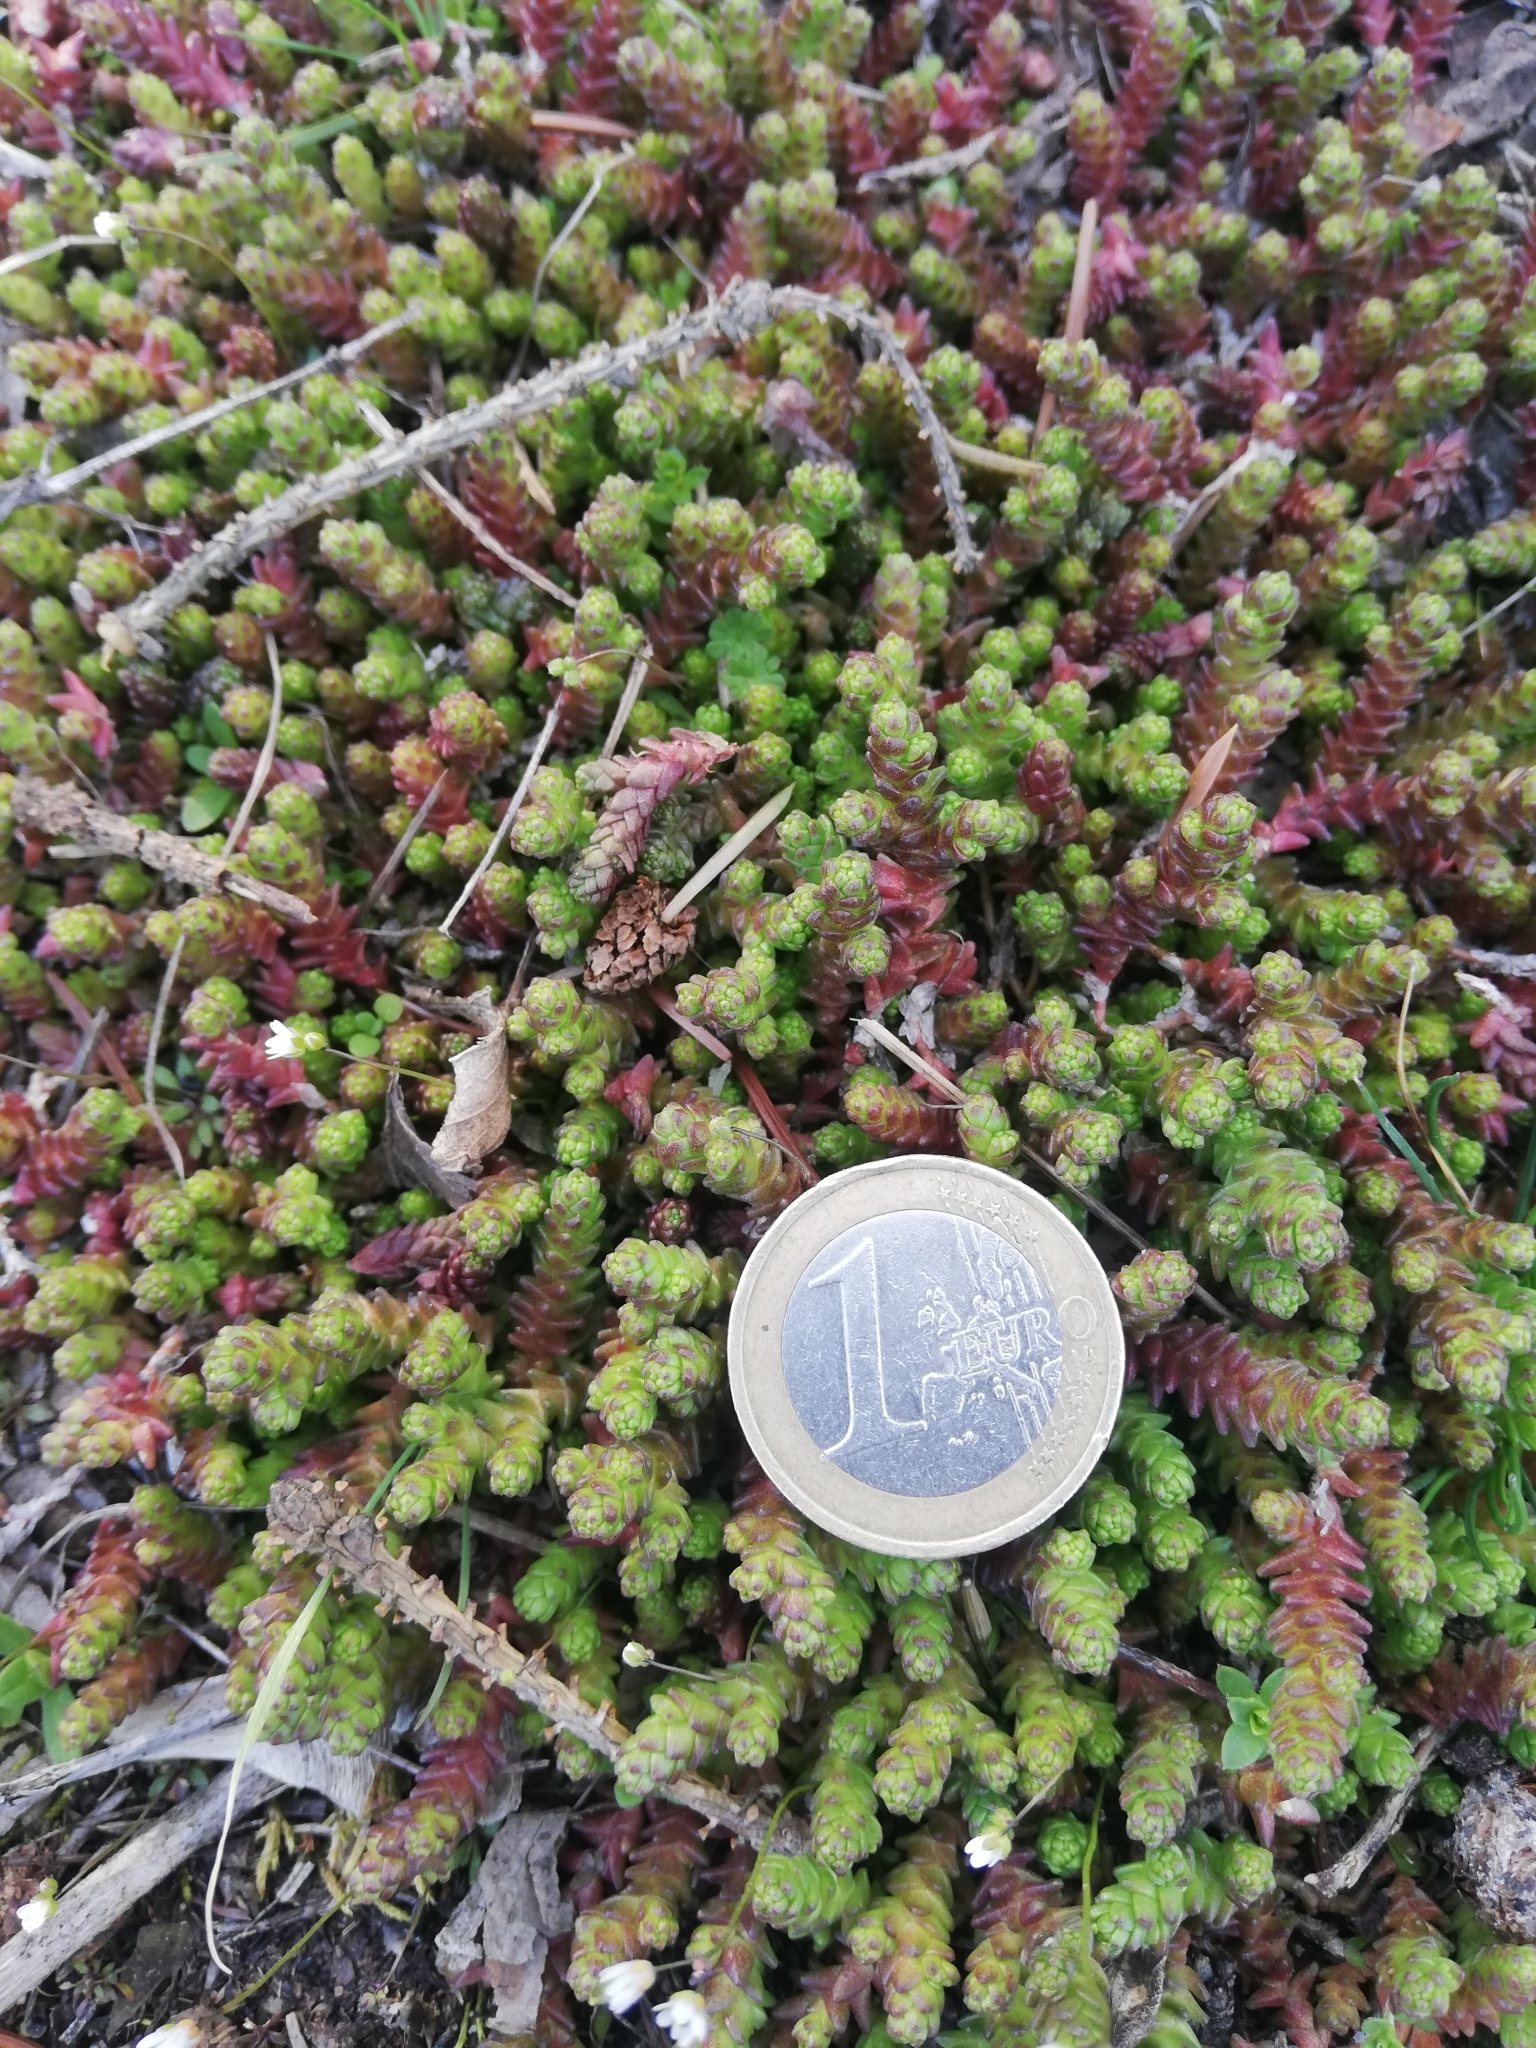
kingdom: Plantae
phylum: Tracheophyta
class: Magnoliopsida
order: Saxifragales
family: Crassulaceae
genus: Sedum
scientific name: Sedum acre
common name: Biting stonecrop
